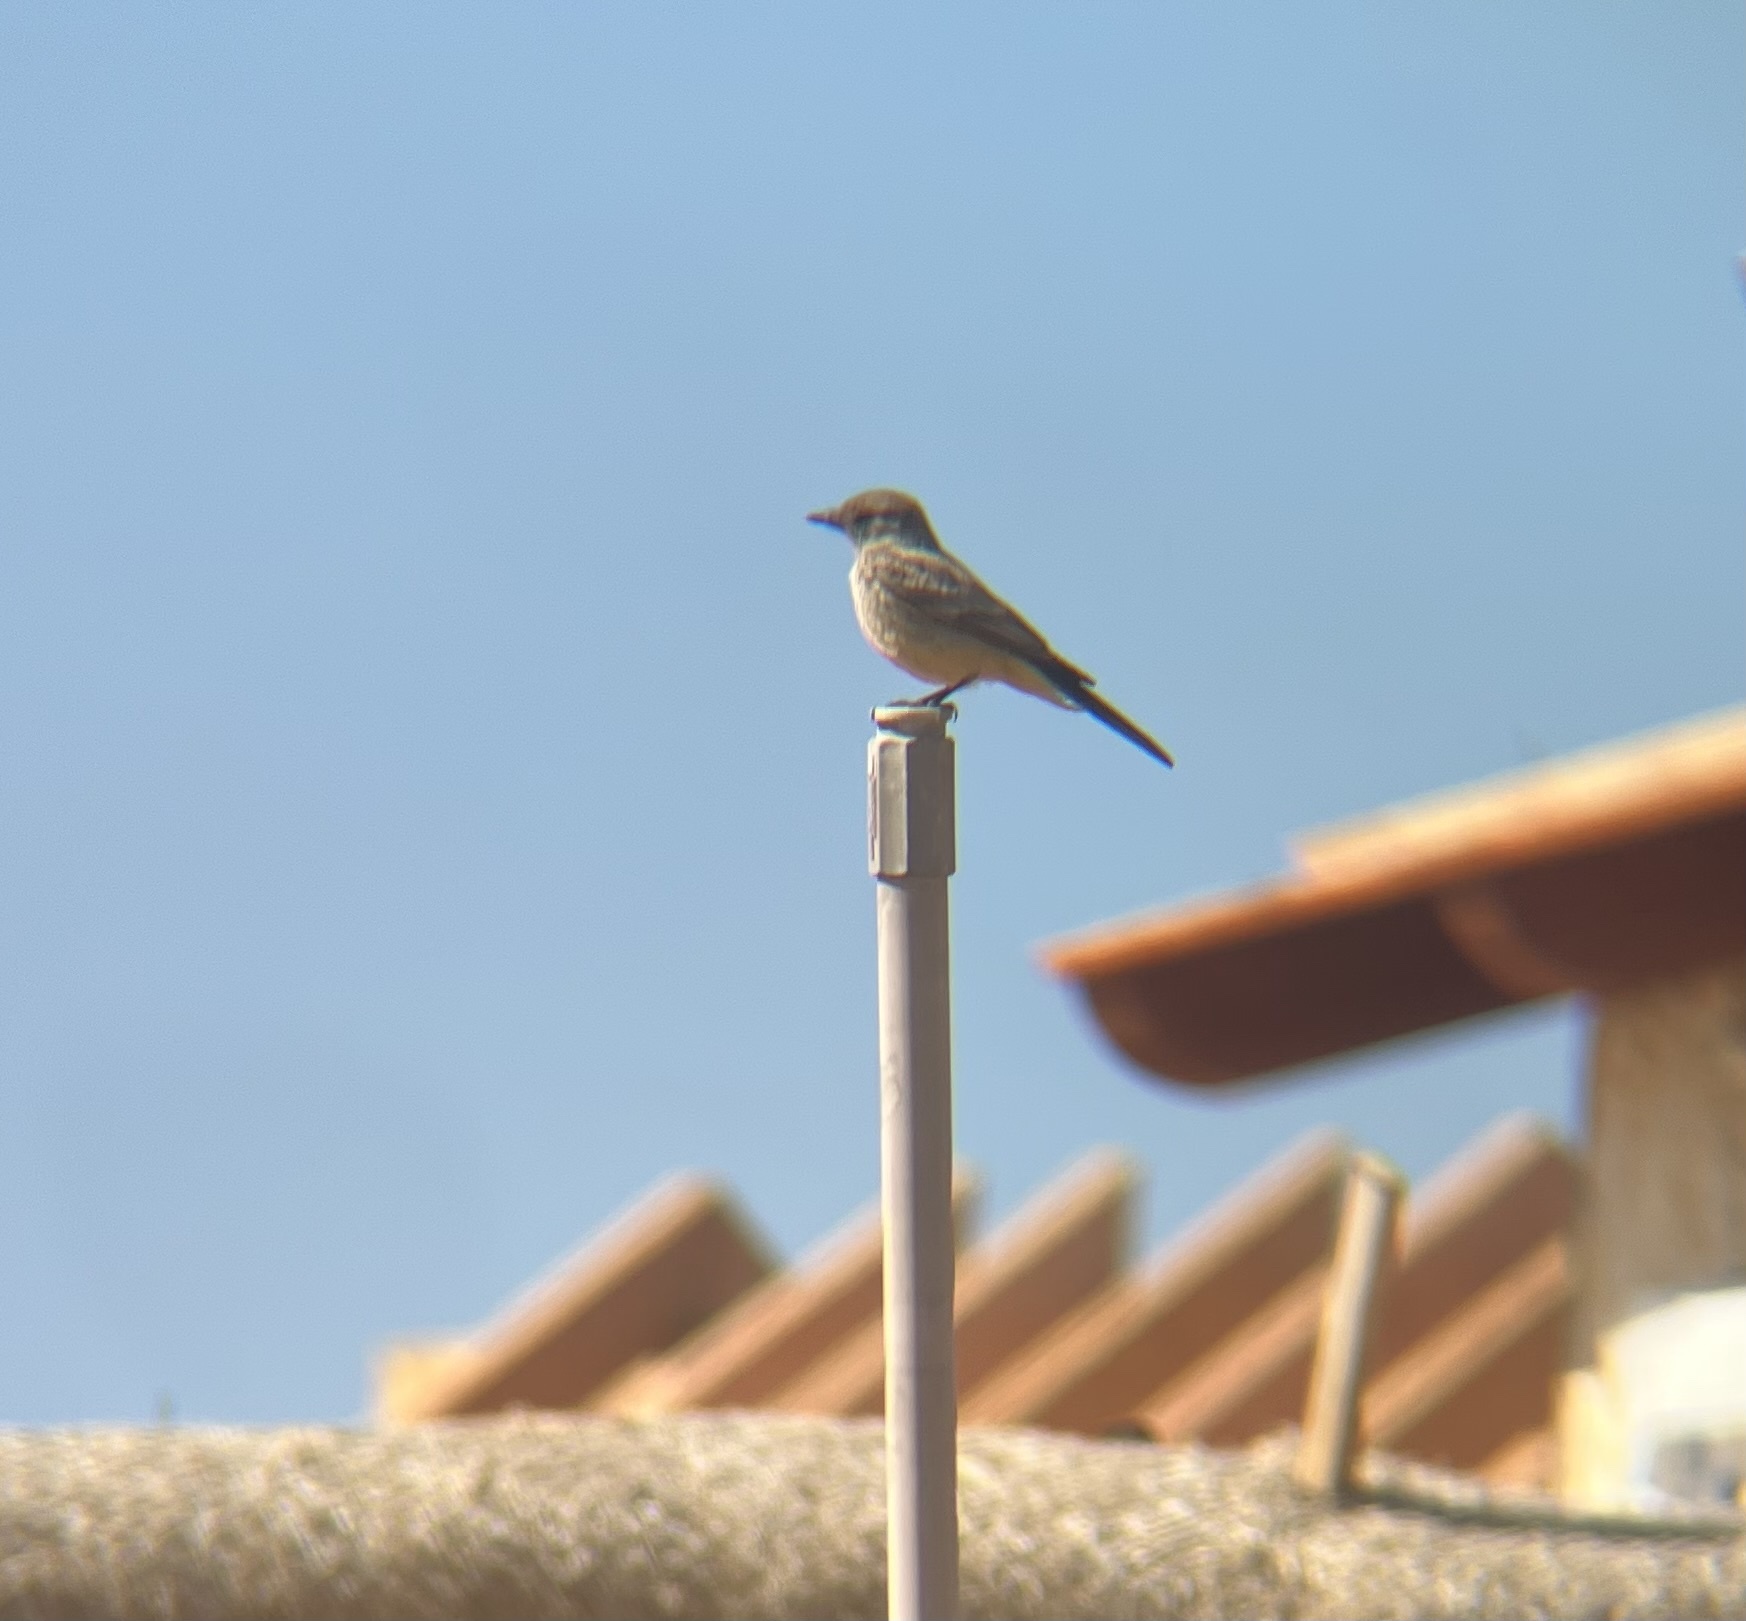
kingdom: Animalia
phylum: Chordata
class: Aves
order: Passeriformes
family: Tyrannidae
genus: Sayornis
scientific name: Sayornis saya
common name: Say's phoebe
